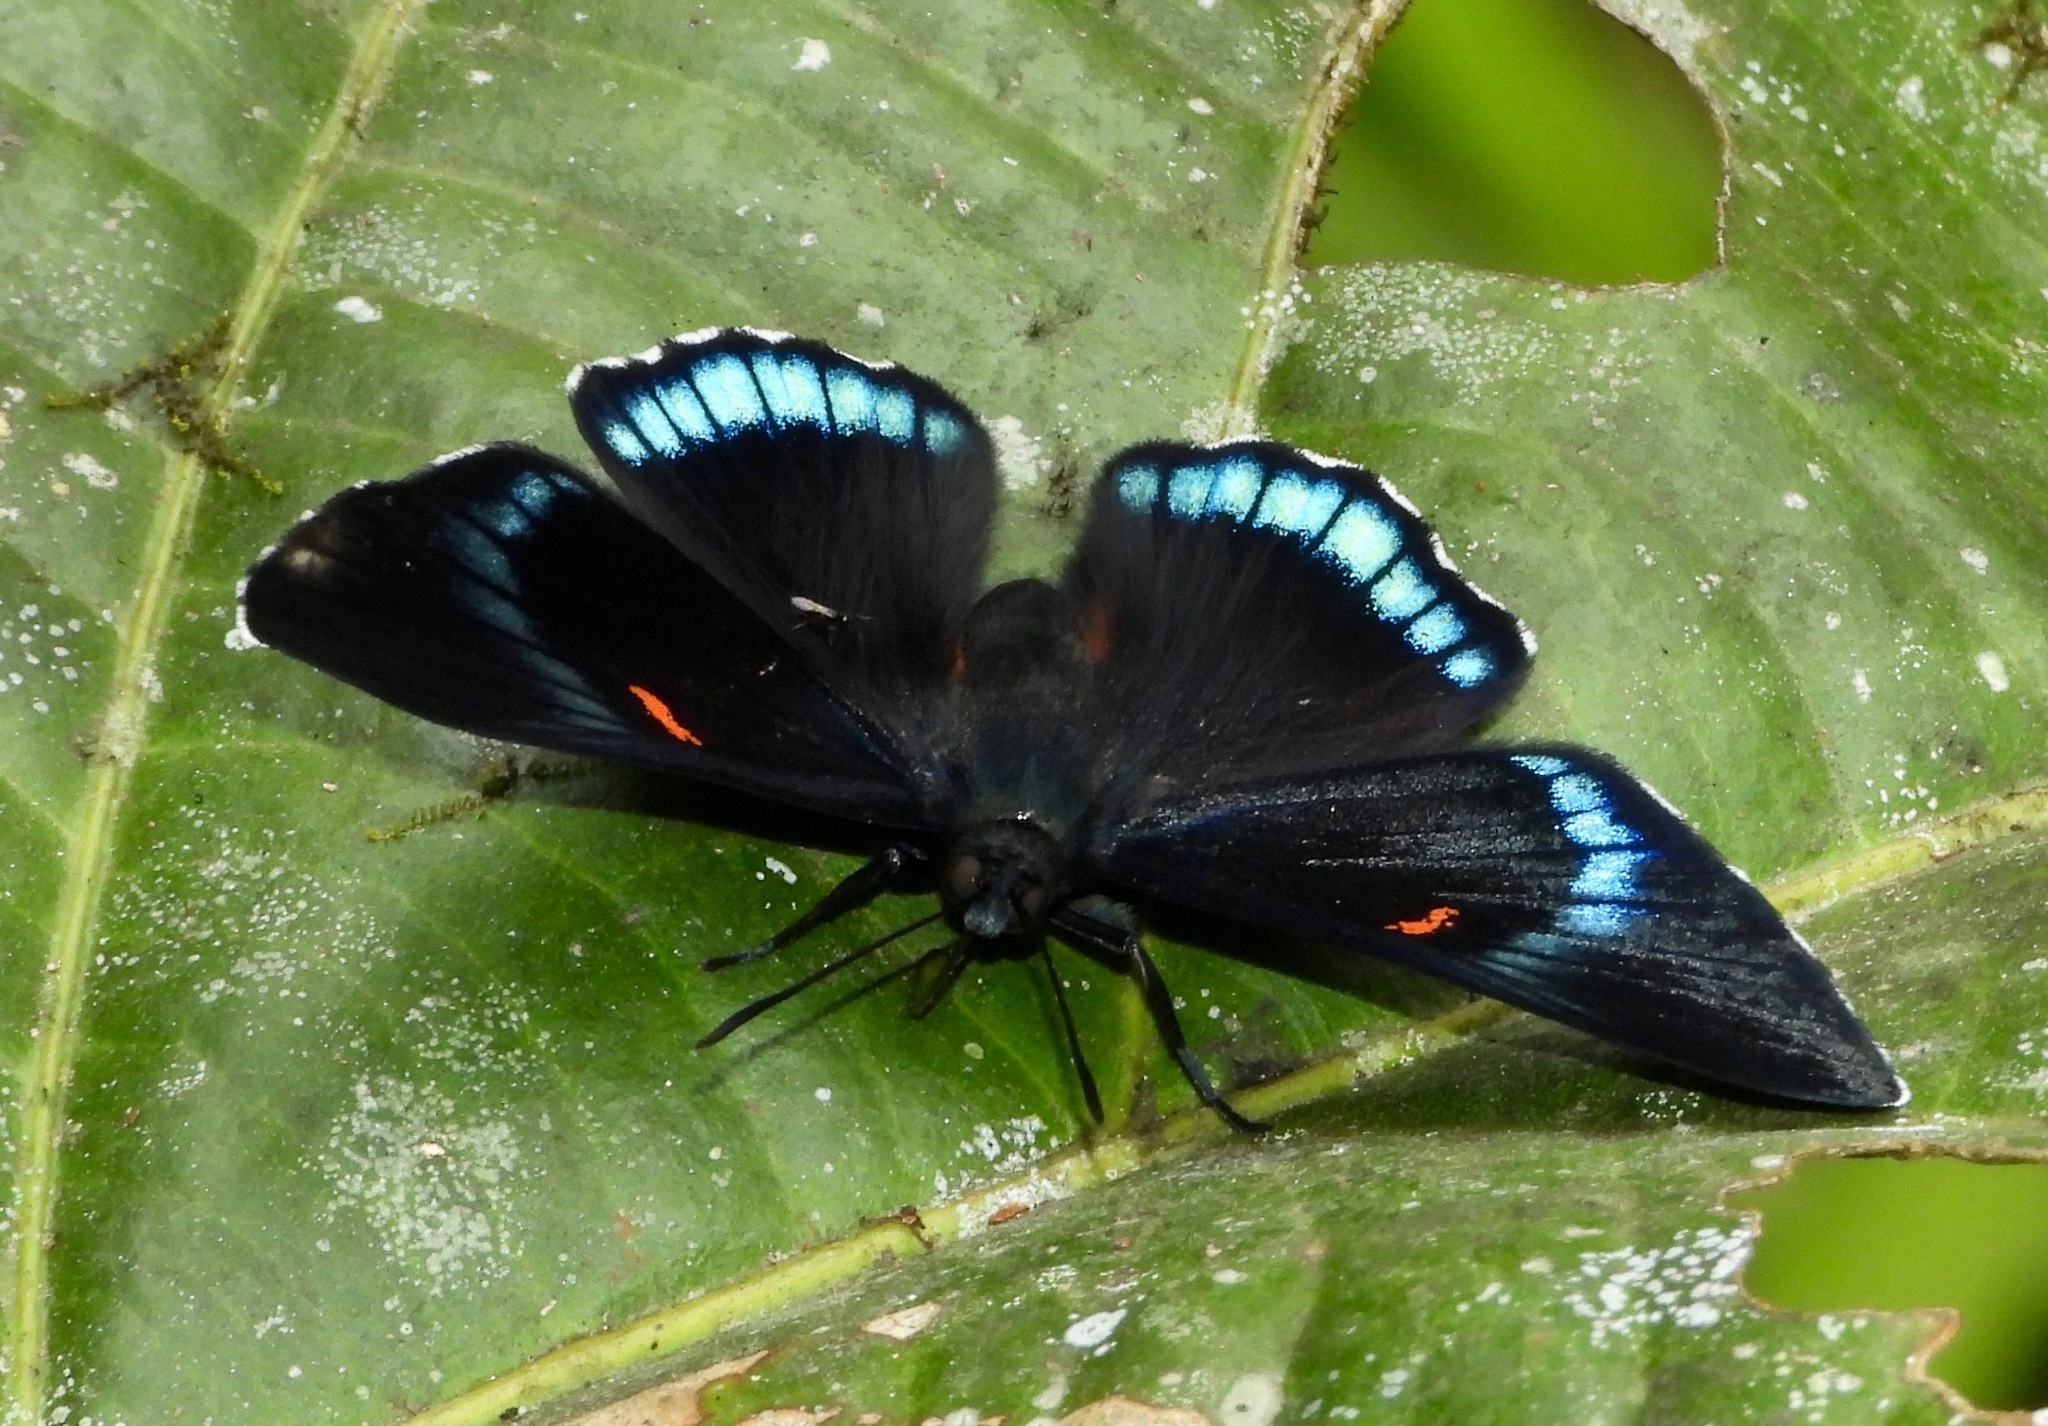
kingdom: Animalia
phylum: Arthropoda
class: Insecta
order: Lepidoptera
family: Lycaenidae
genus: Necyria
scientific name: Necyria bellona
